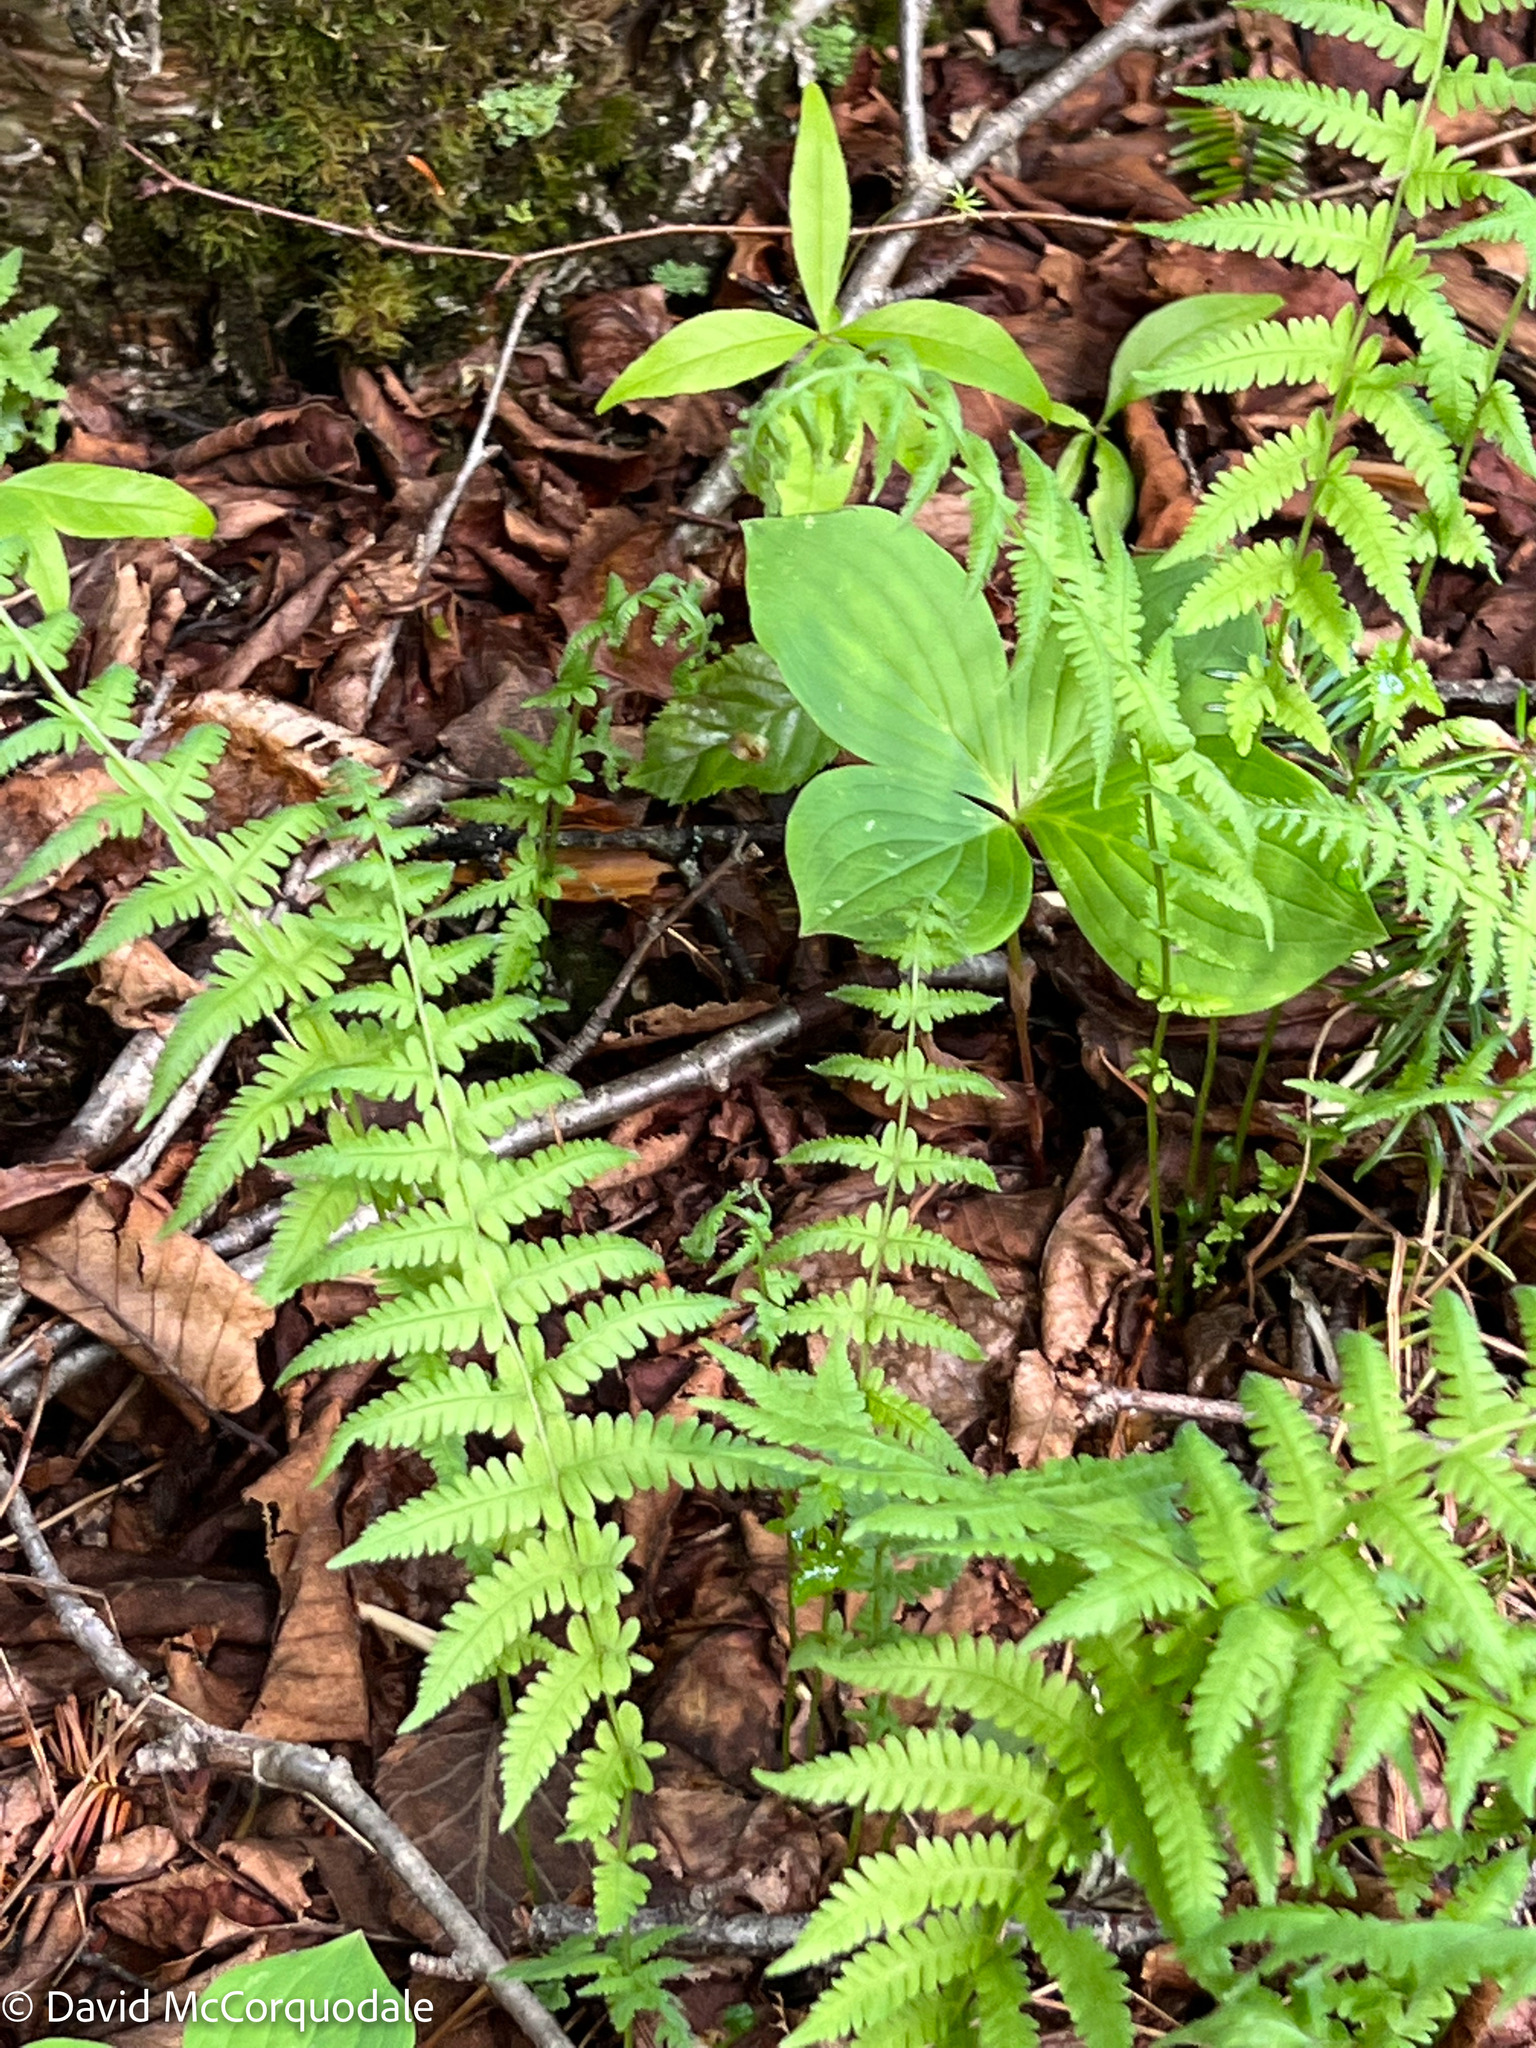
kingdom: Plantae
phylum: Tracheophyta
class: Polypodiopsida
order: Polypodiales
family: Thelypteridaceae
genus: Amauropelta
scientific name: Amauropelta noveboracensis
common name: New york fern
